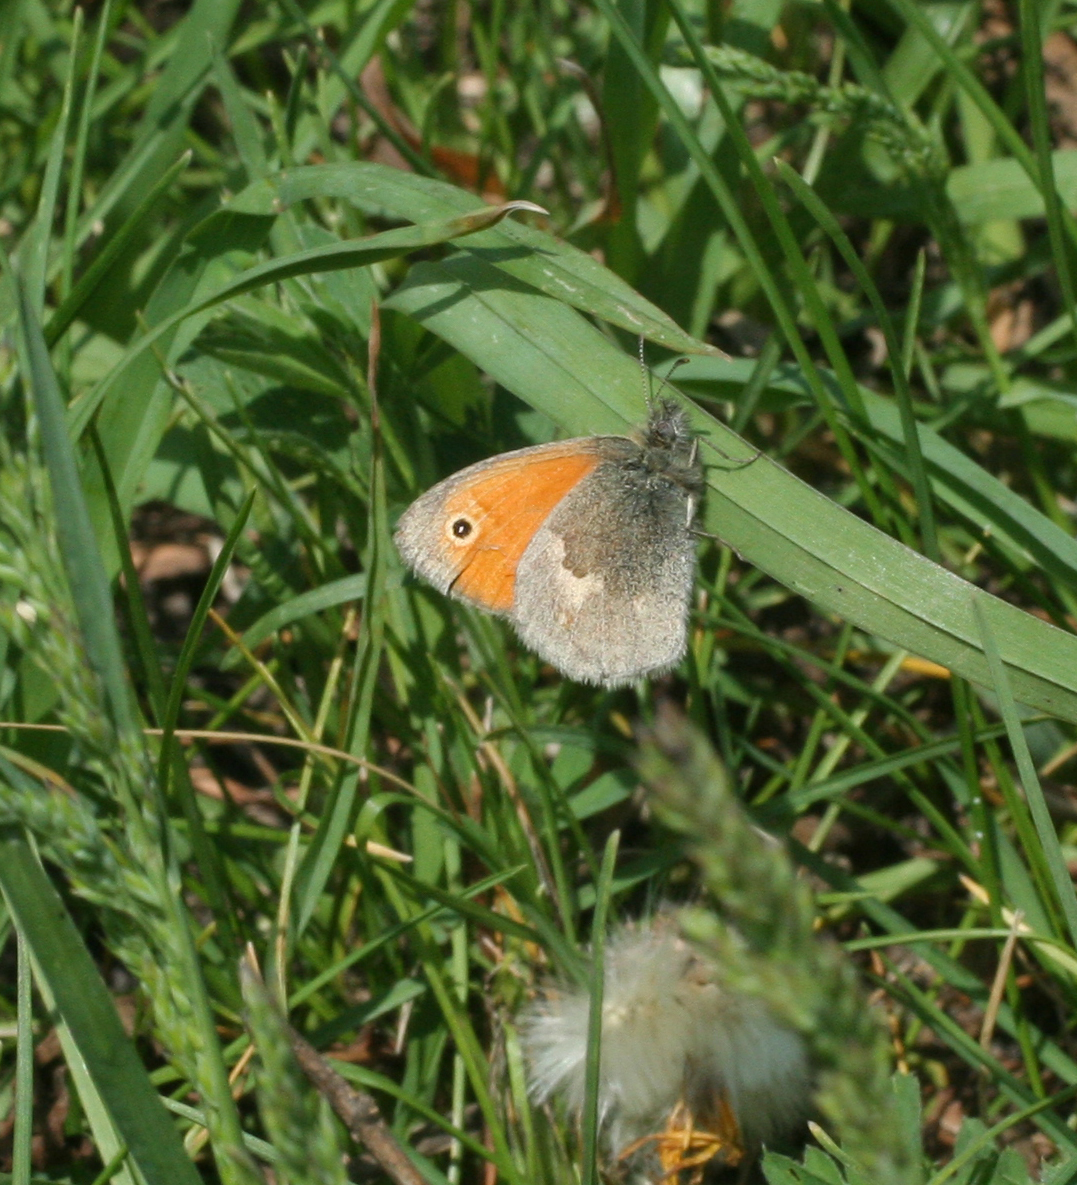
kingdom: Animalia
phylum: Arthropoda
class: Insecta
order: Lepidoptera
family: Nymphalidae
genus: Coenonympha
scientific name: Coenonympha pamphilus
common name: Small heath
